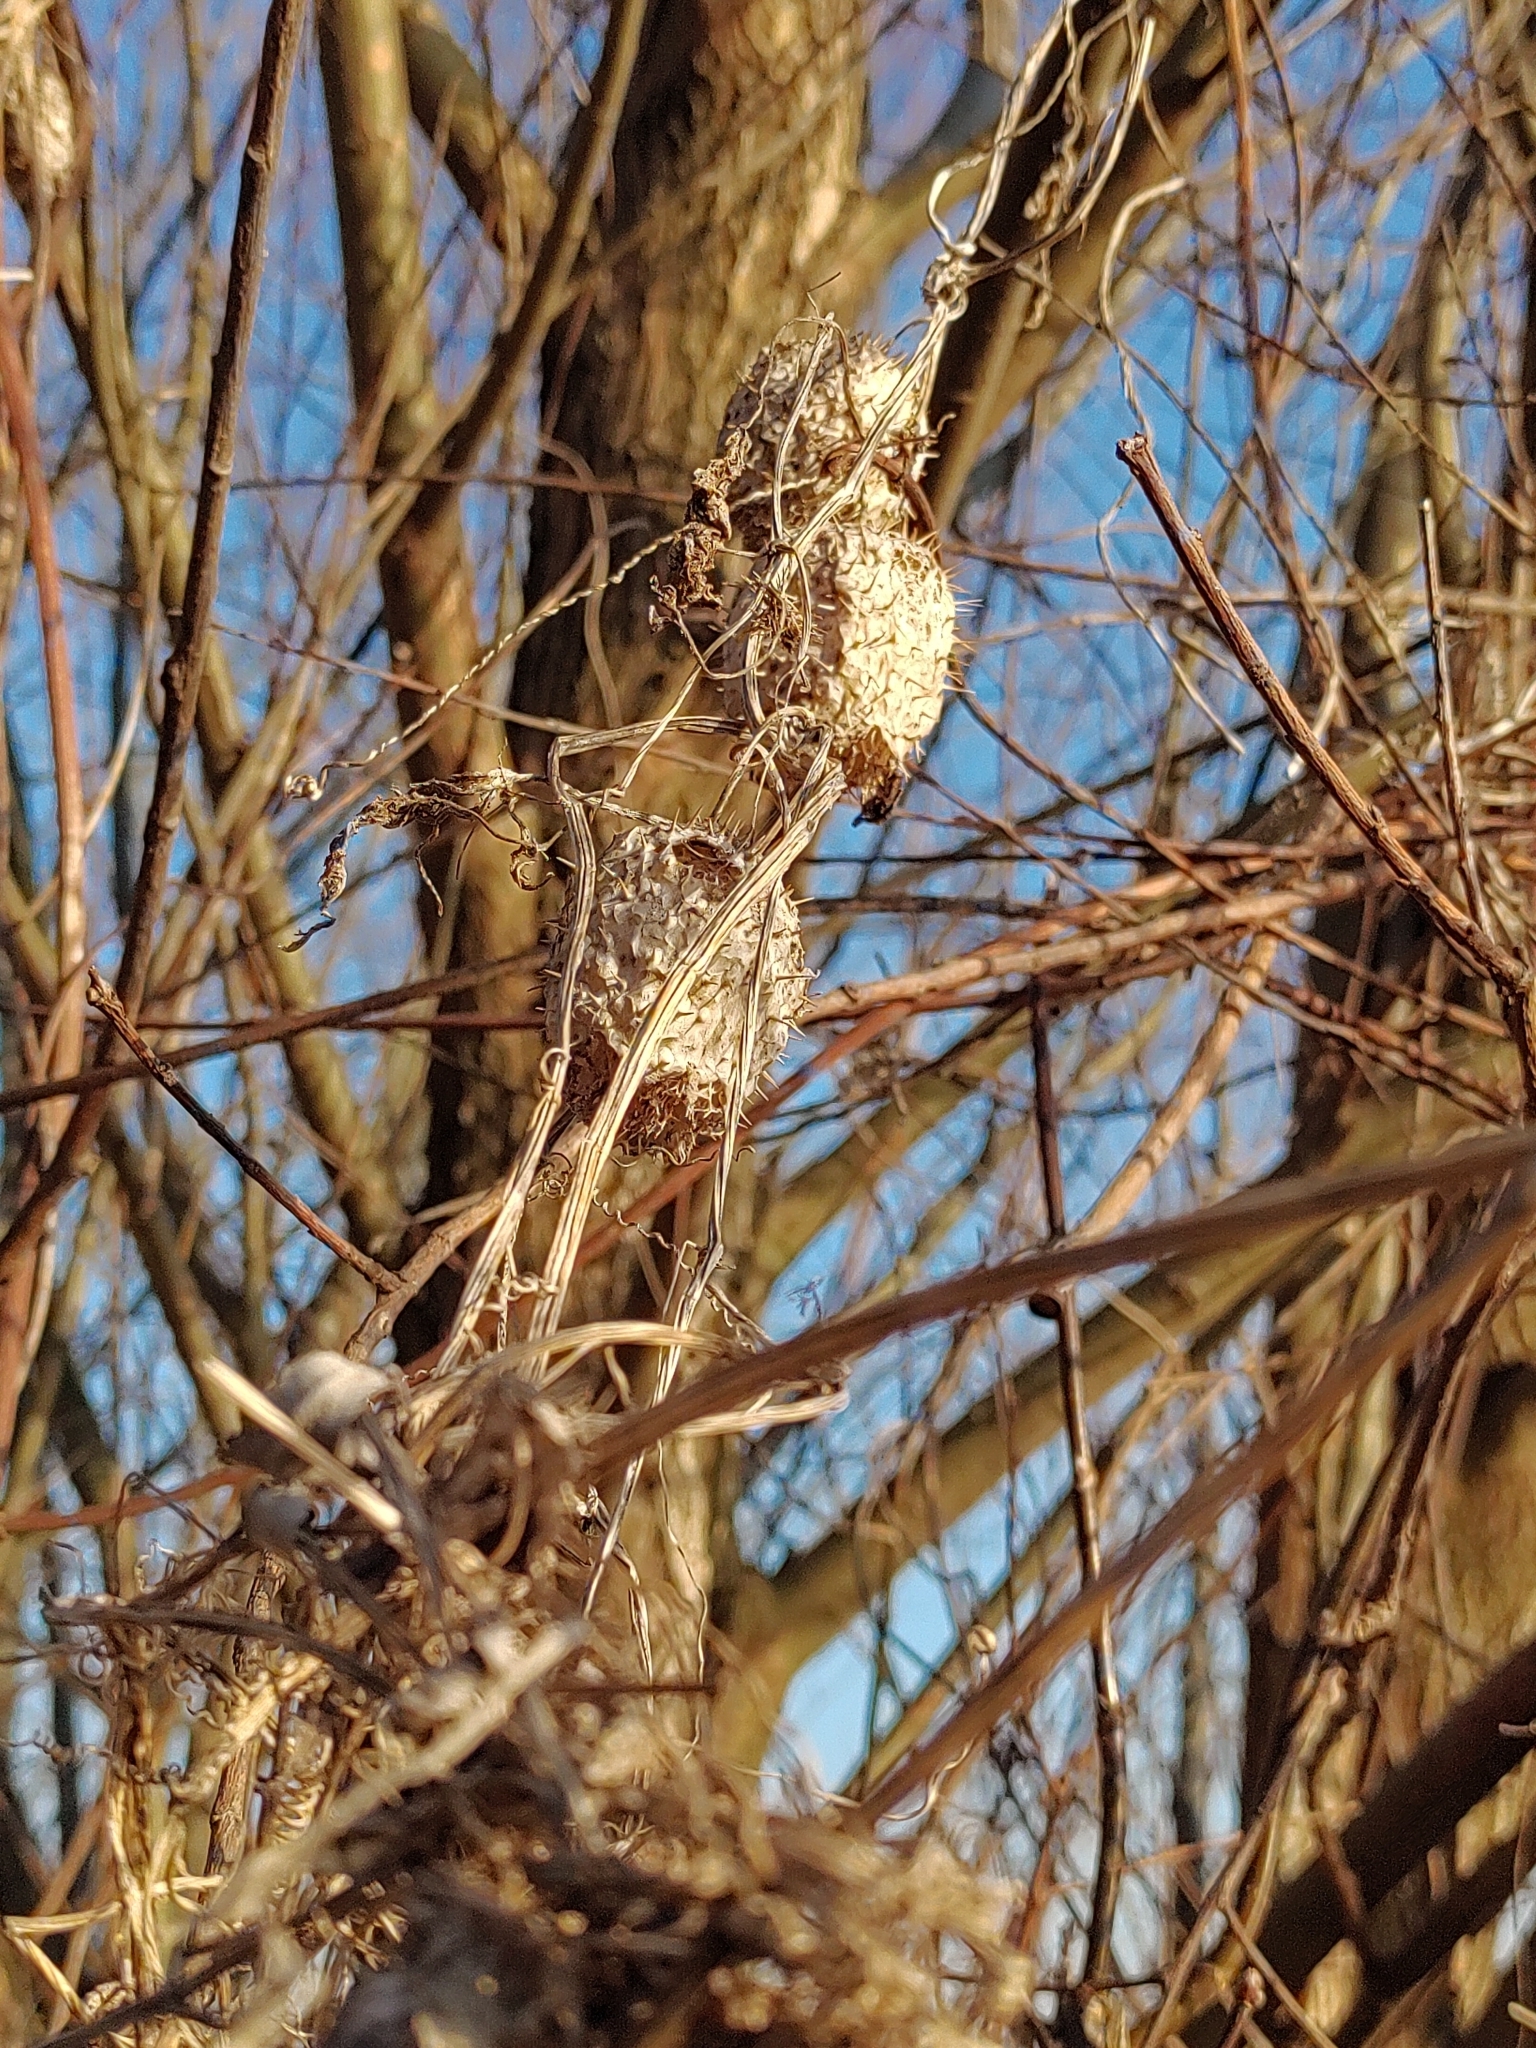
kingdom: Plantae
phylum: Tracheophyta
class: Magnoliopsida
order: Cucurbitales
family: Cucurbitaceae
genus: Echinocystis
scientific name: Echinocystis lobata
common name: Wild cucumber
